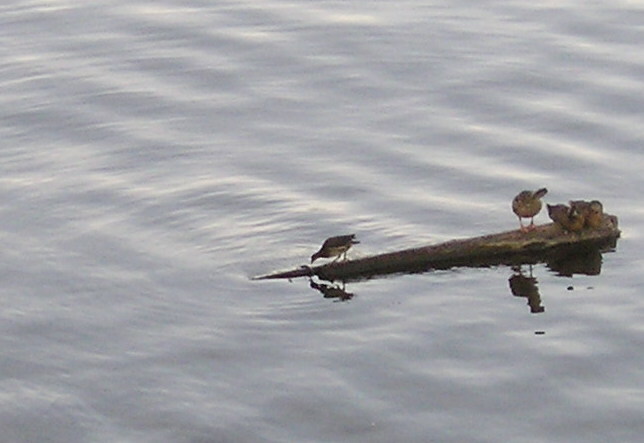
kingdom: Animalia
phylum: Chordata
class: Aves
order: Gruiformes
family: Rallidae
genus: Gallinula
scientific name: Gallinula chloropus
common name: Common moorhen
